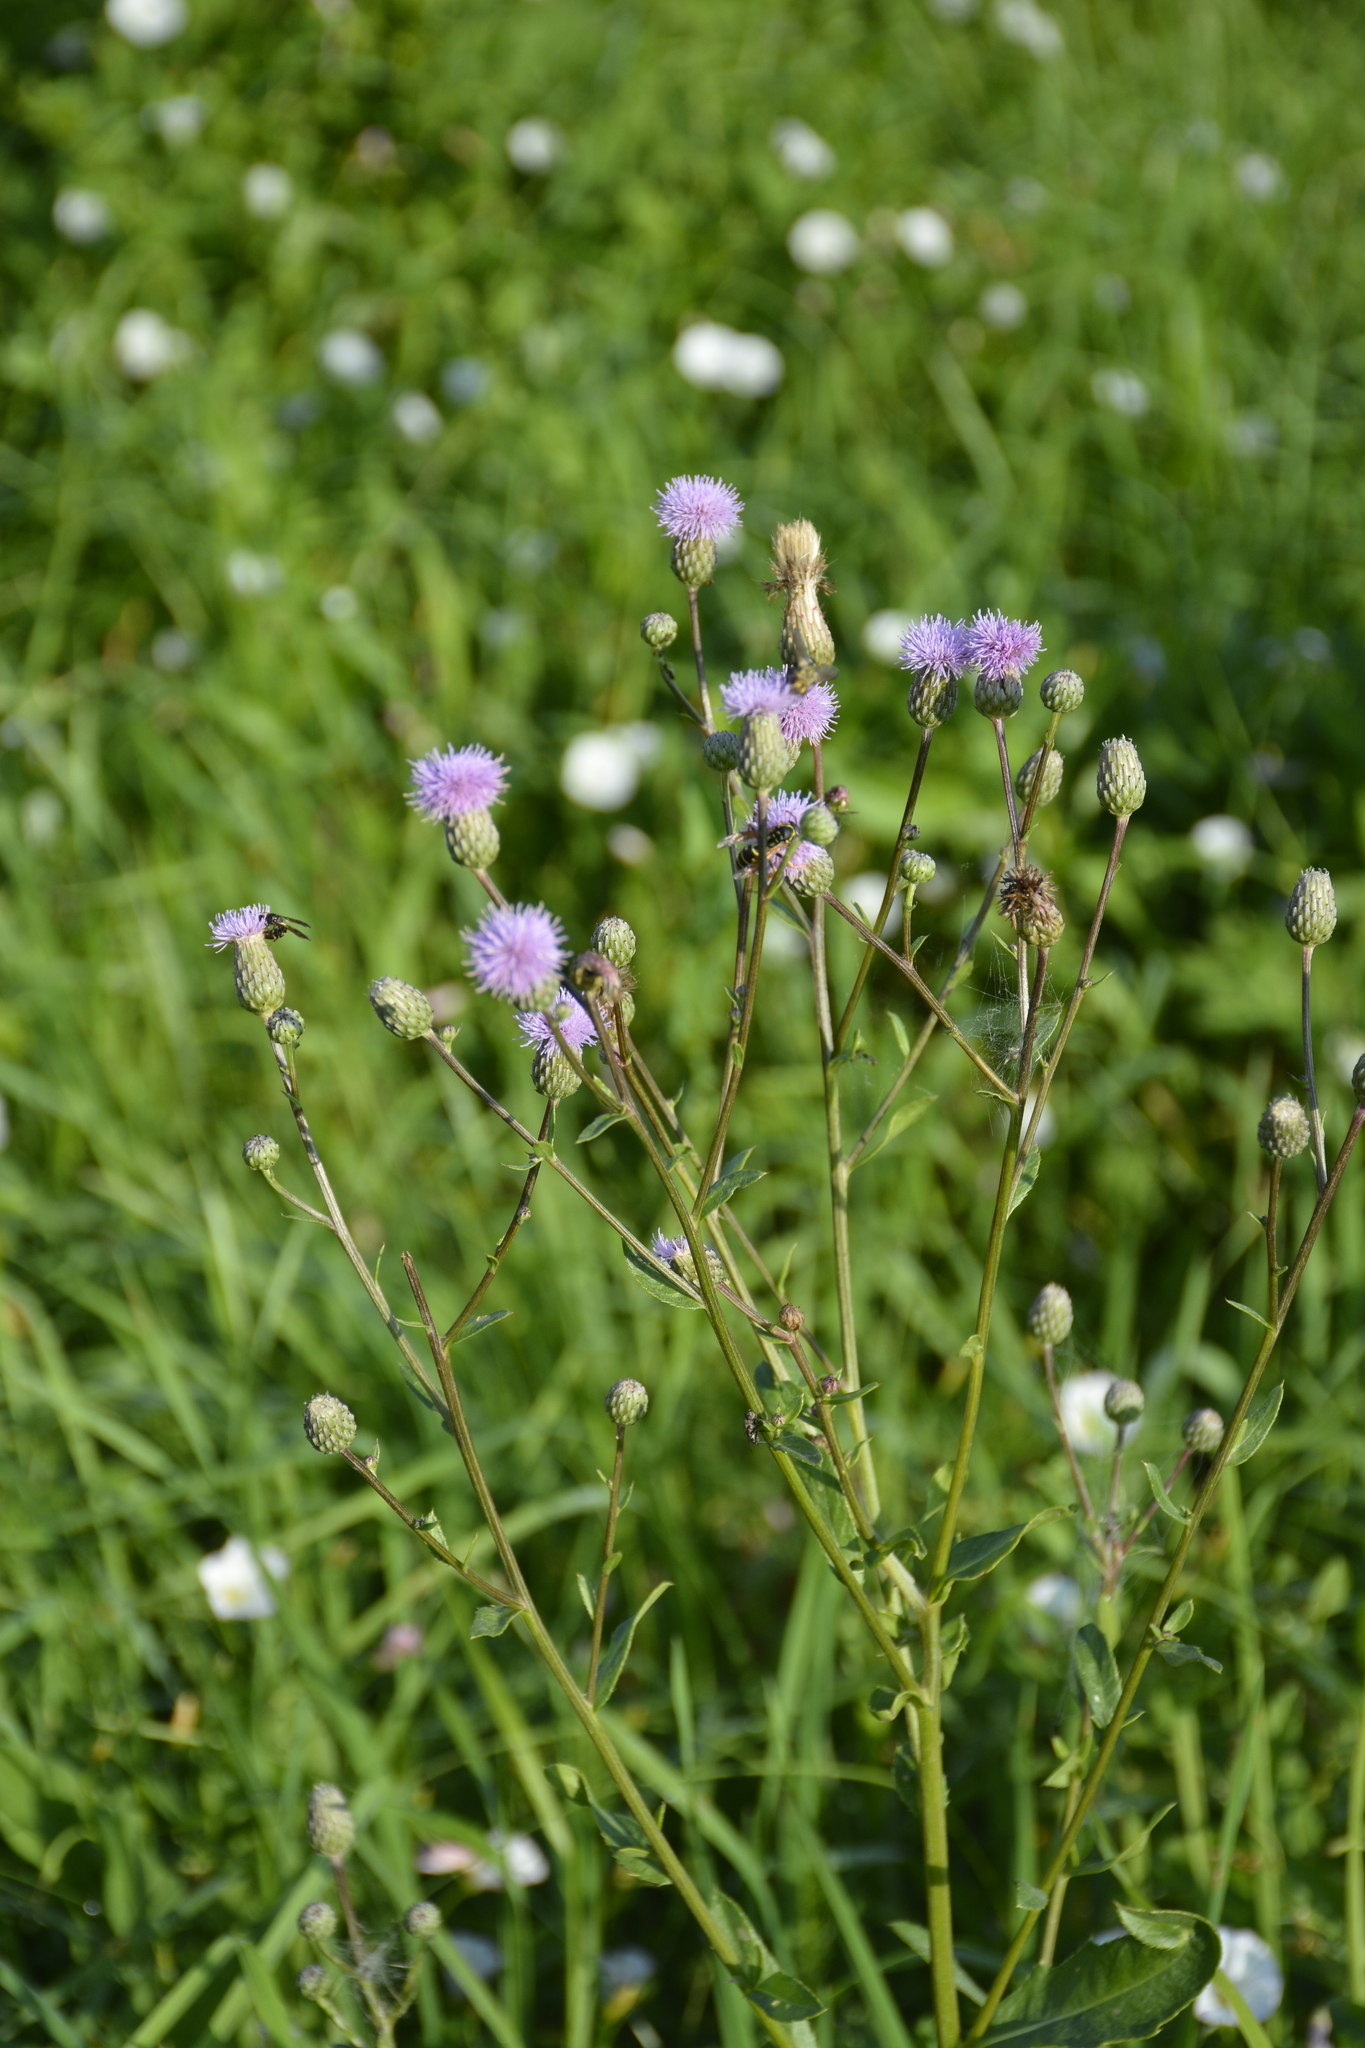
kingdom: Plantae
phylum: Tracheophyta
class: Magnoliopsida
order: Asterales
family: Asteraceae
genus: Cirsium
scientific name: Cirsium arvense
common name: Creeping thistle
